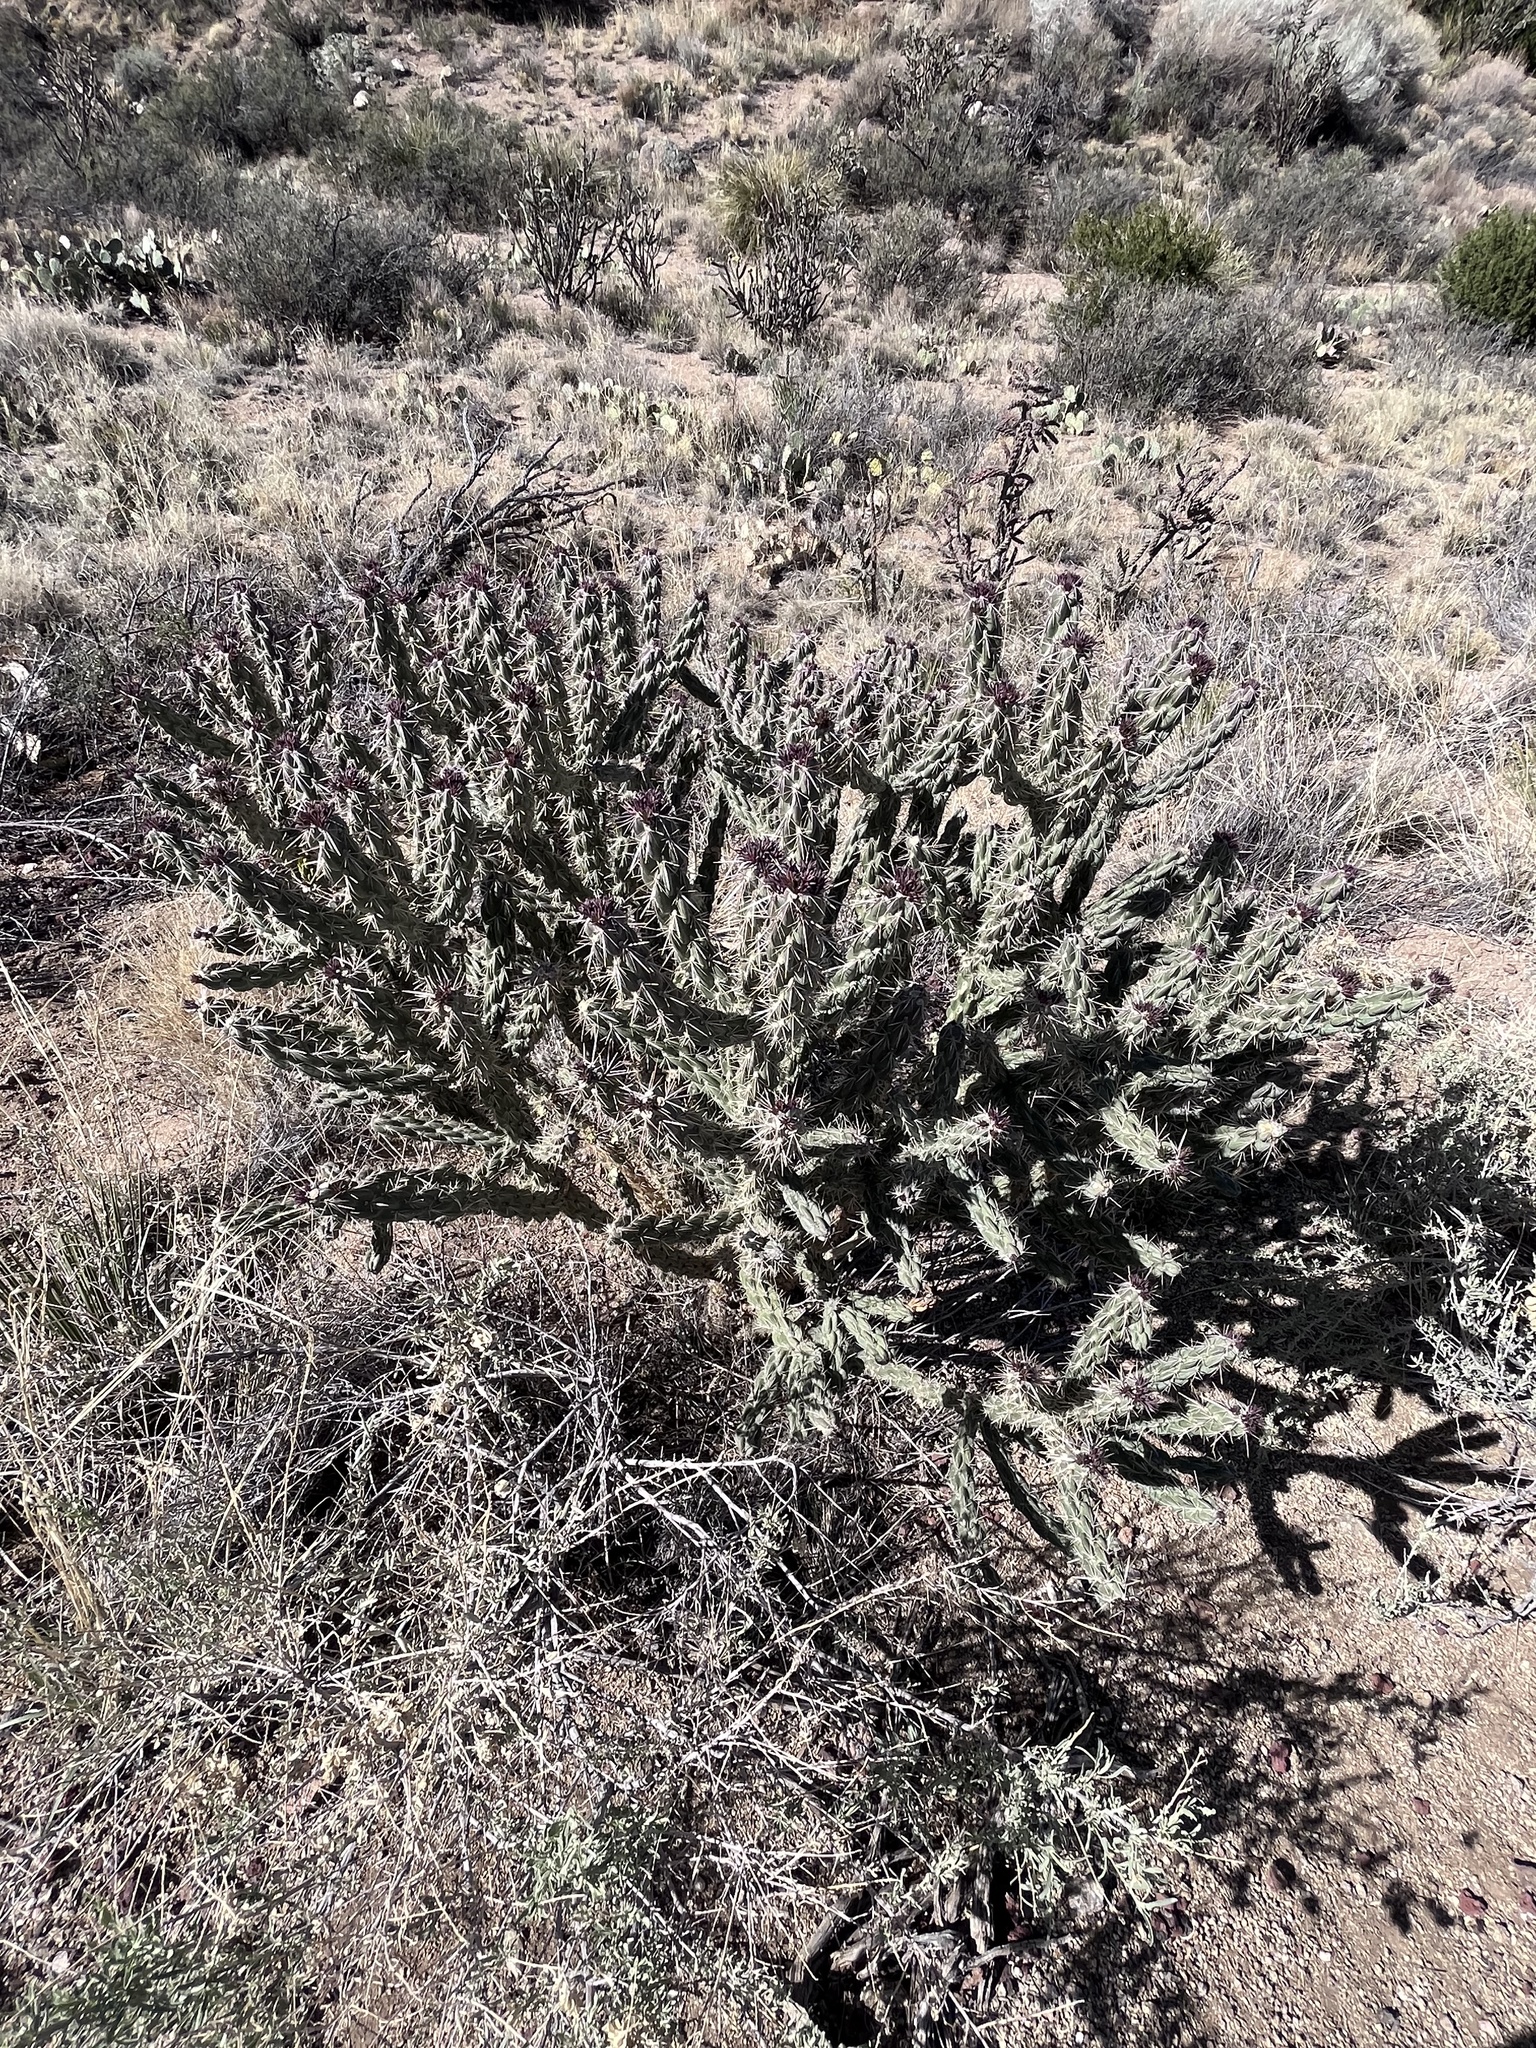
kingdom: Plantae
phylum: Tracheophyta
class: Magnoliopsida
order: Caryophyllales
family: Cactaceae
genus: Cylindropuntia
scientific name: Cylindropuntia imbricata
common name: Candelabrum cactus
